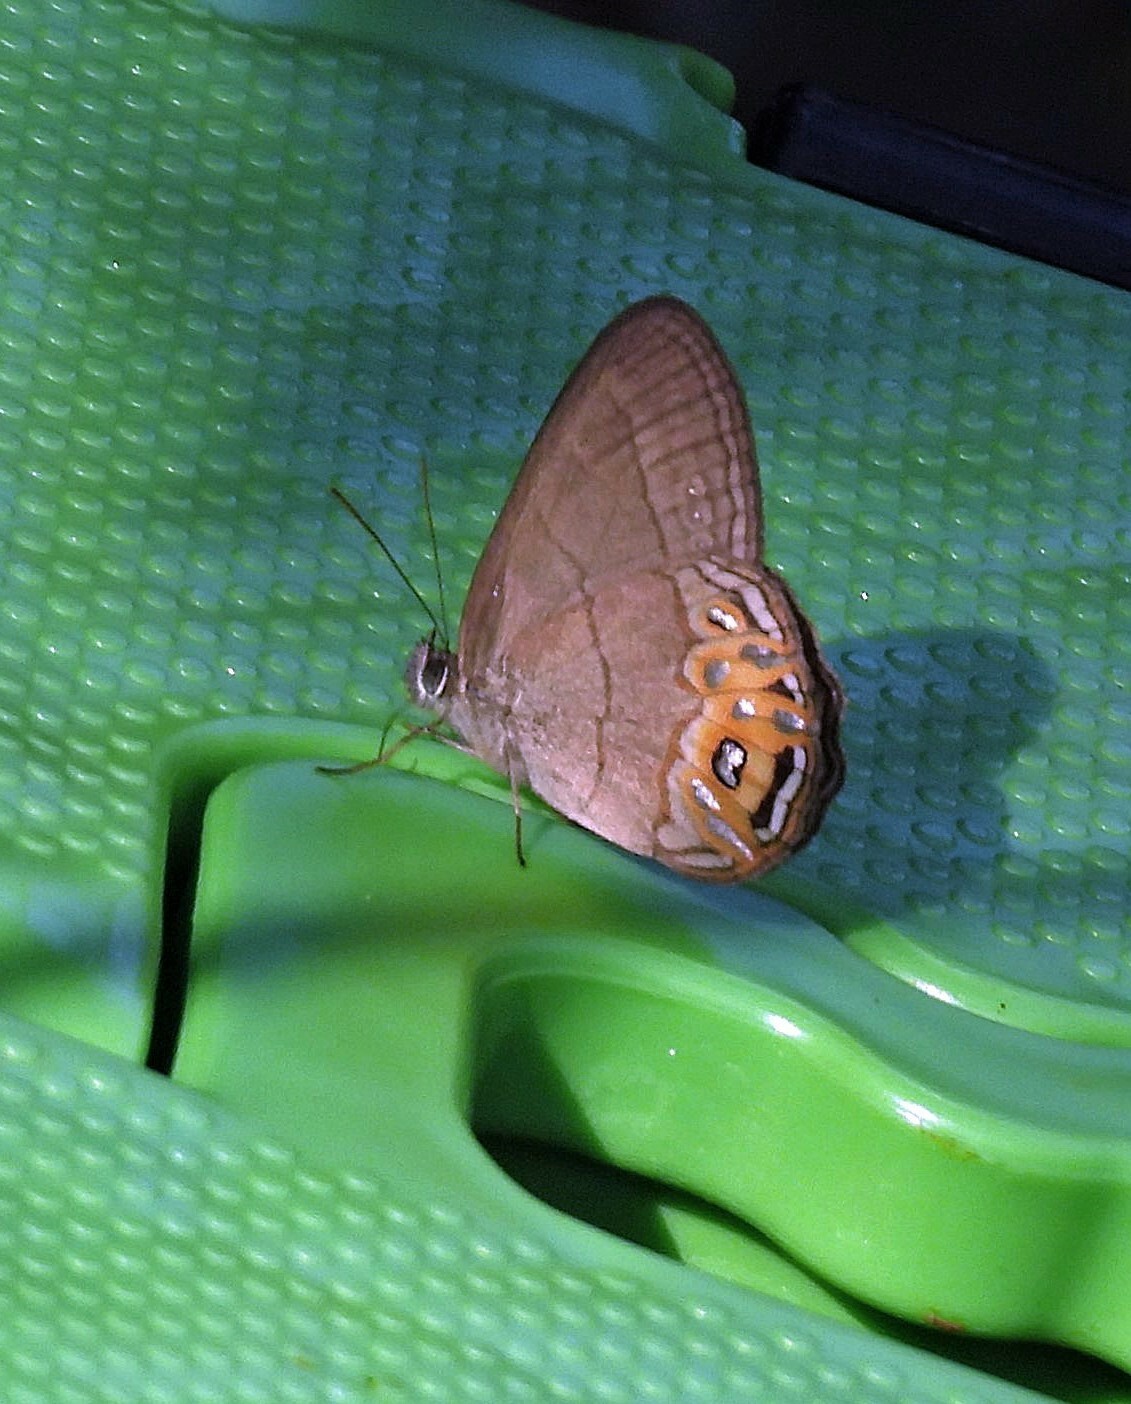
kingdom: Animalia
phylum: Arthropoda
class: Insecta
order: Lepidoptera
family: Nymphalidae
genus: Splendeuptychia
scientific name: Splendeuptychia libitina
